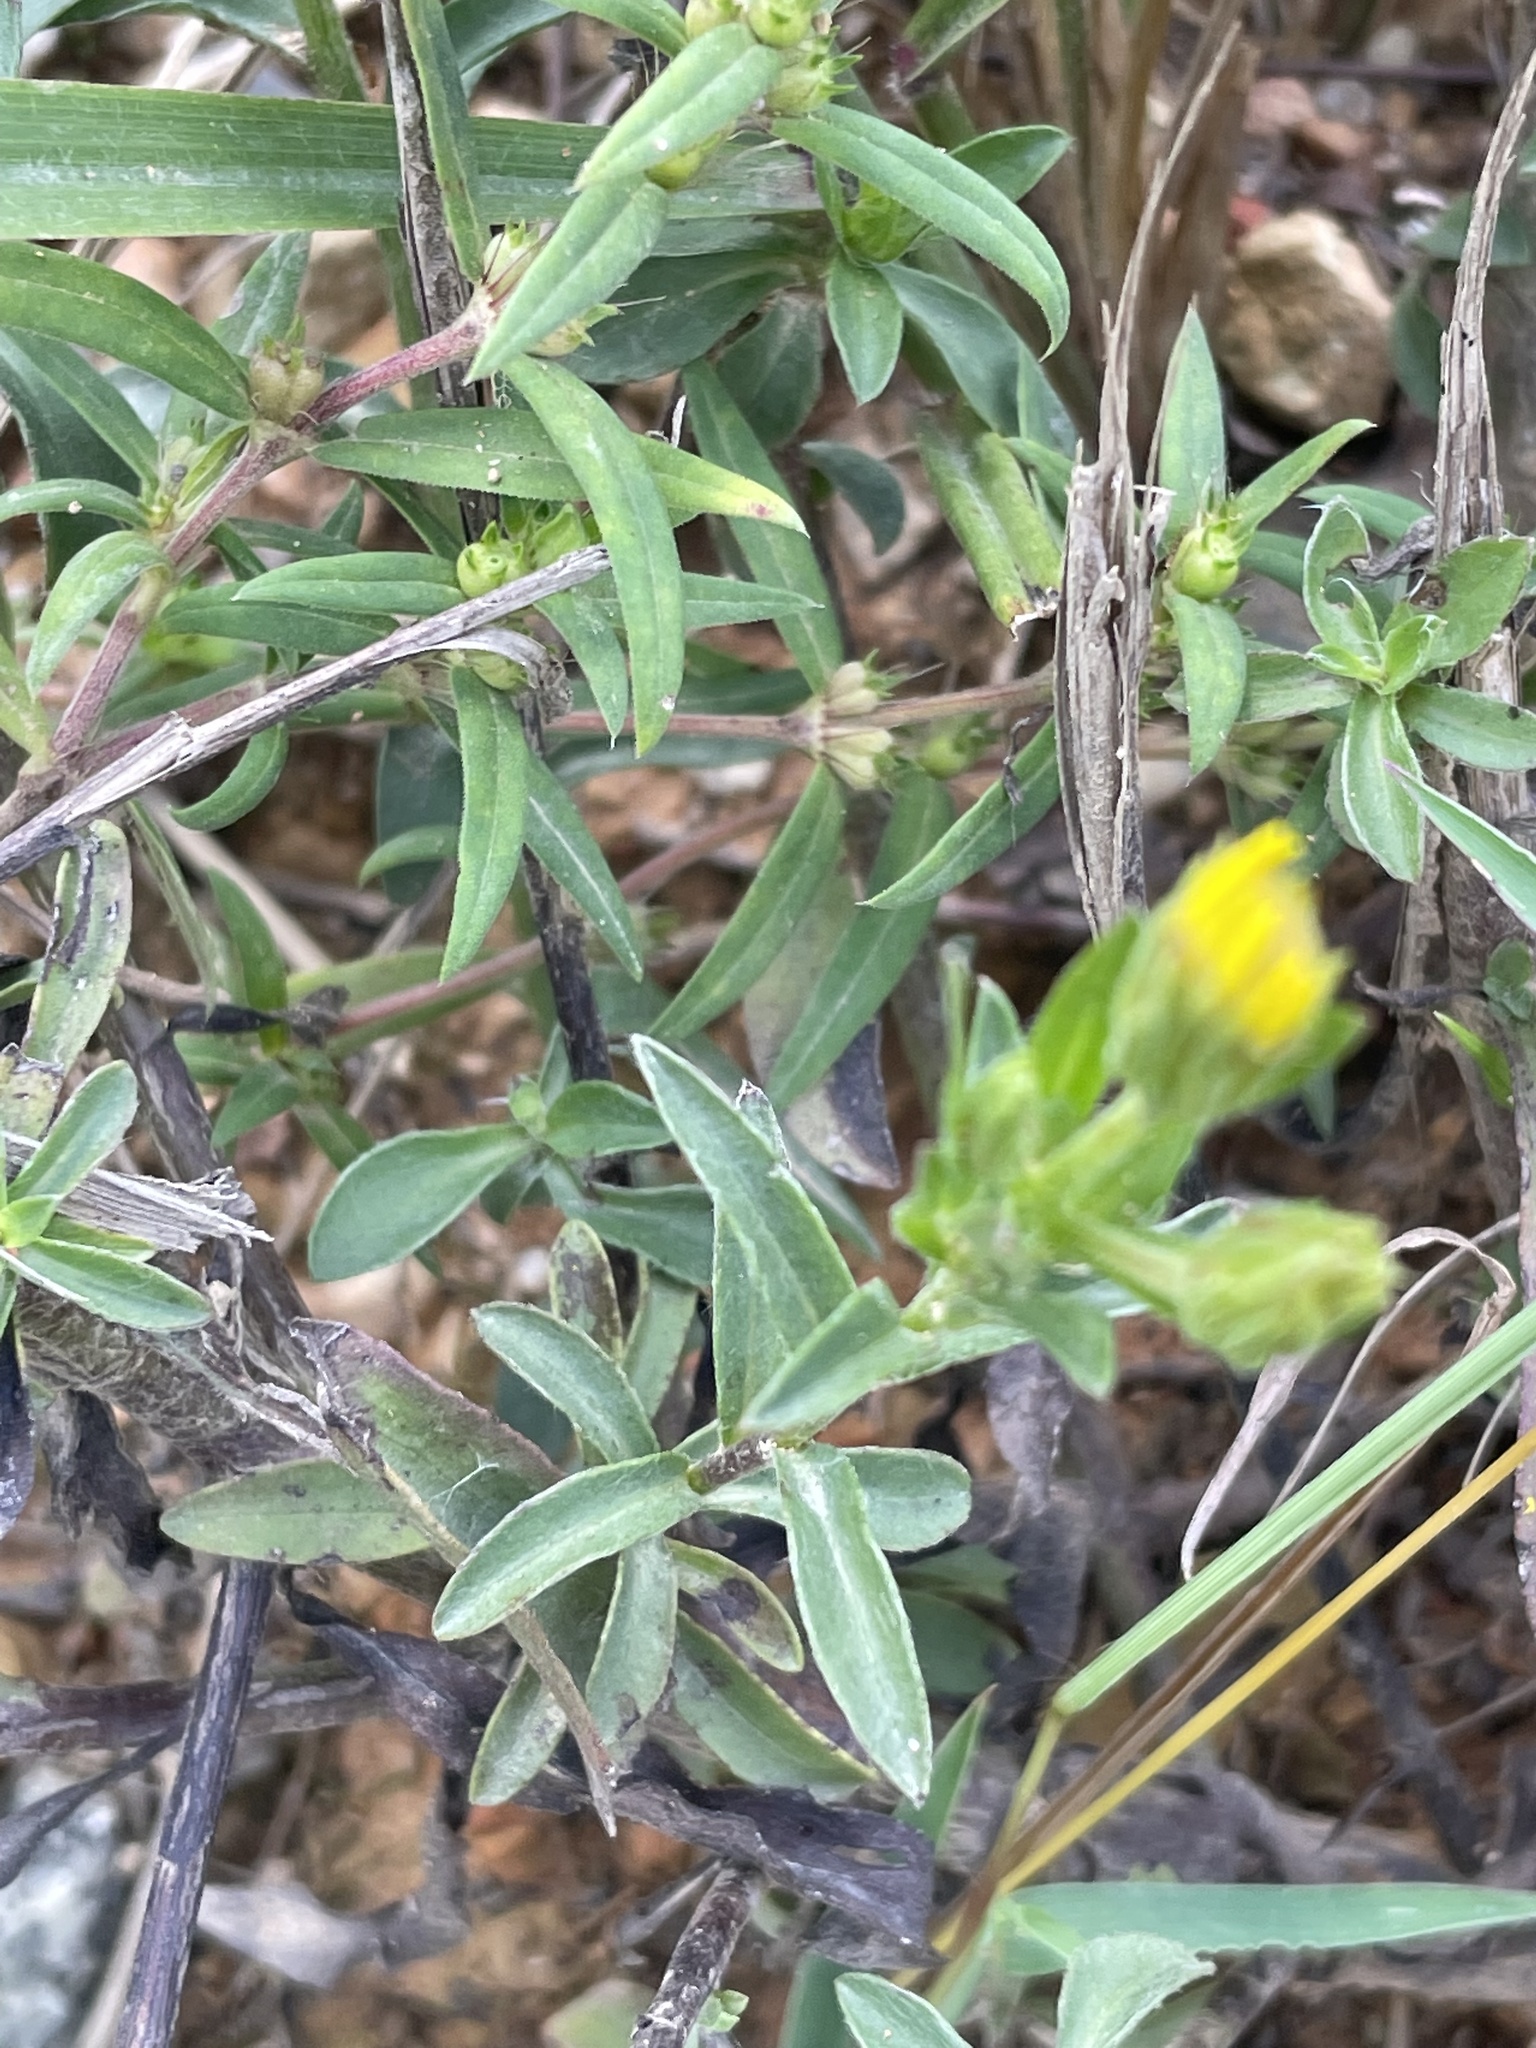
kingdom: Plantae
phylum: Tracheophyta
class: Magnoliopsida
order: Asterales
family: Asteraceae
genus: Chrysopsis
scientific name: Chrysopsis mariana
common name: Maryland golden-aster
